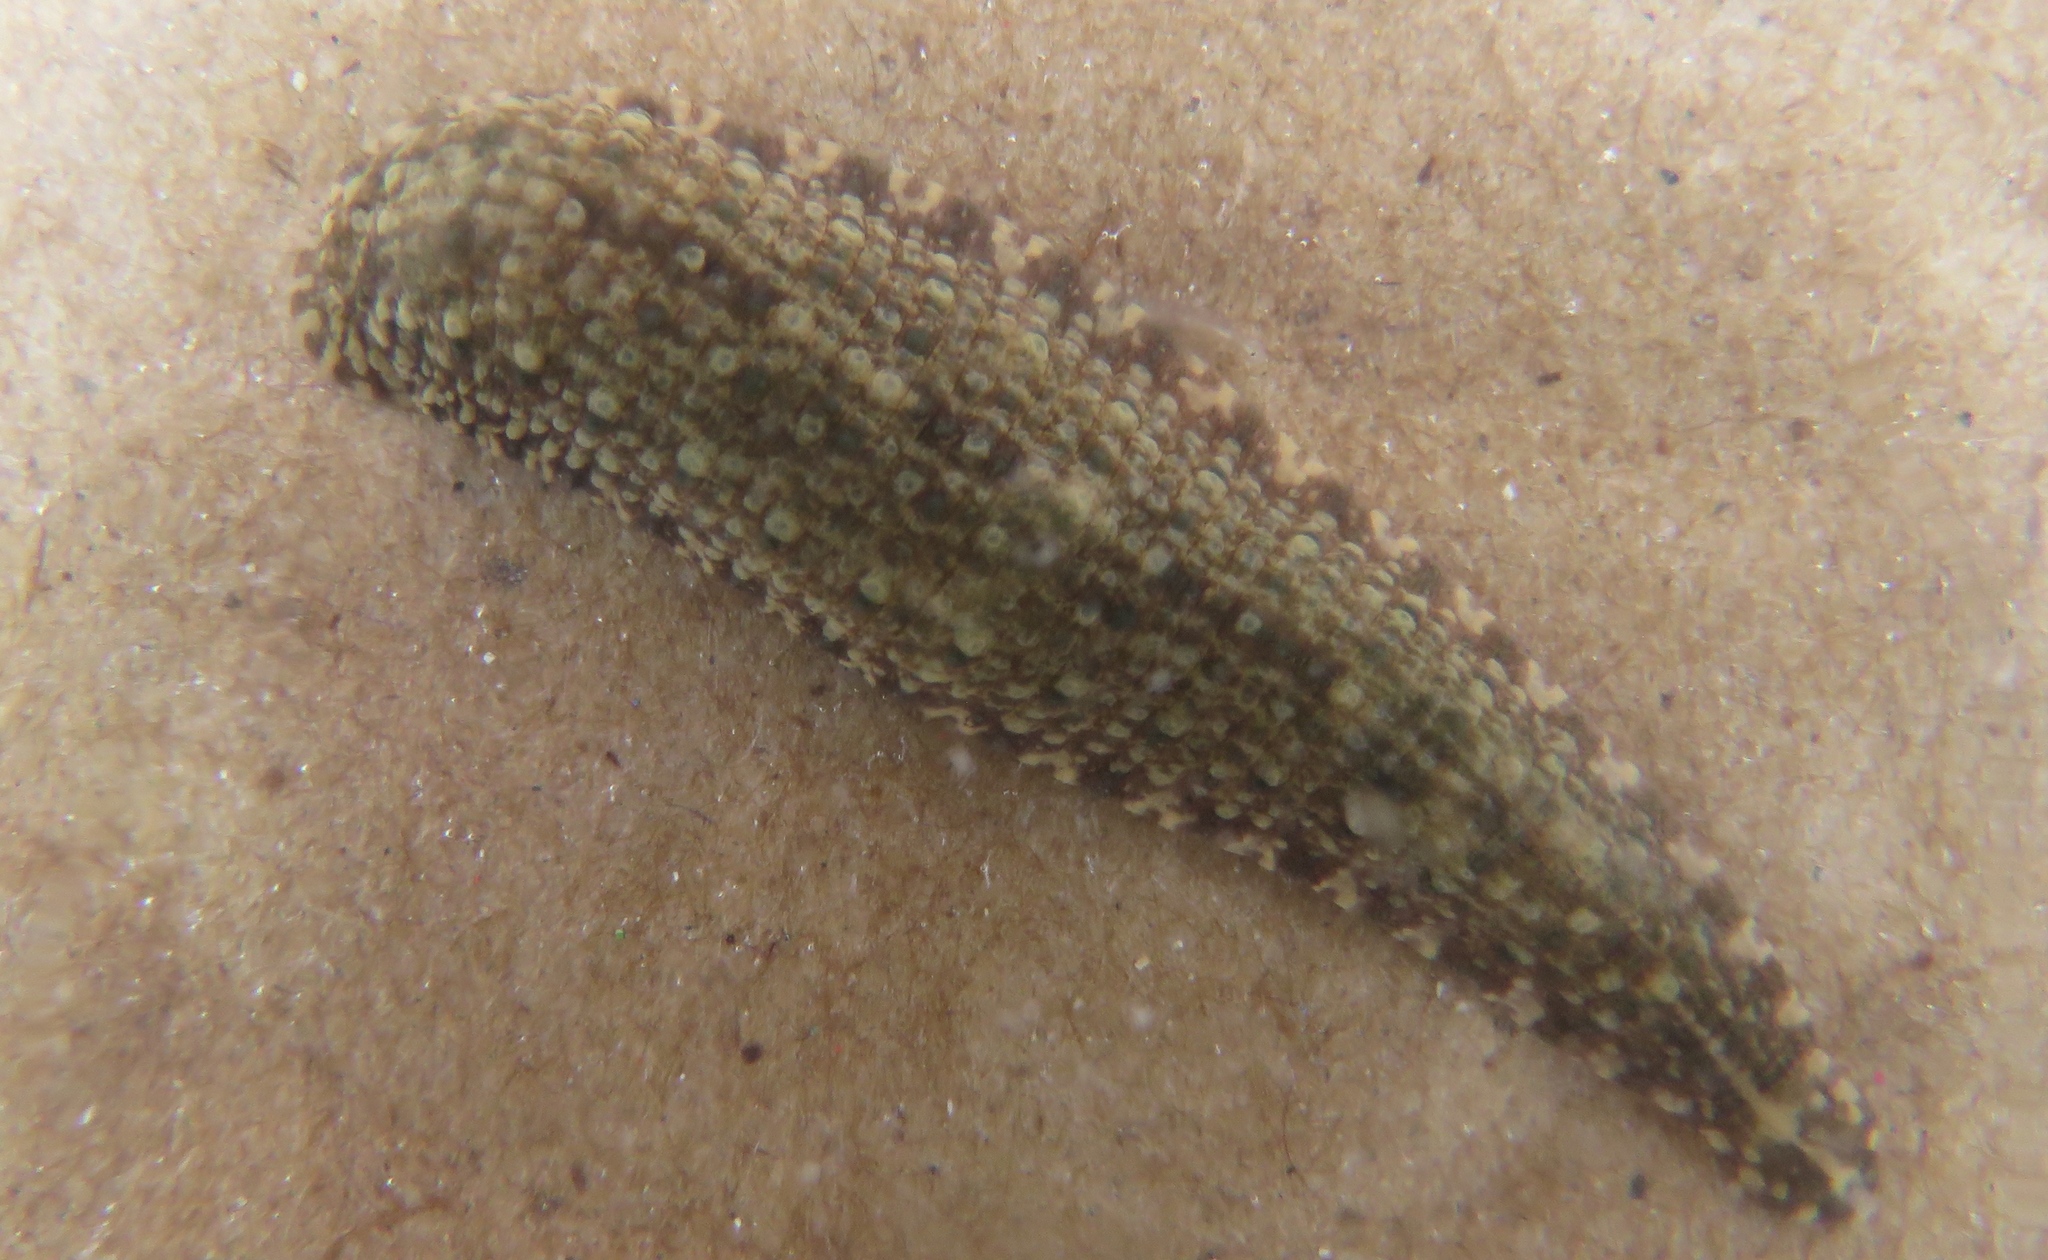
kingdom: Animalia
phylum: Annelida
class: Clitellata
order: Rhynchobdellida
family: Glossiphoniidae
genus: Placobdella
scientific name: Placobdella rugosa
